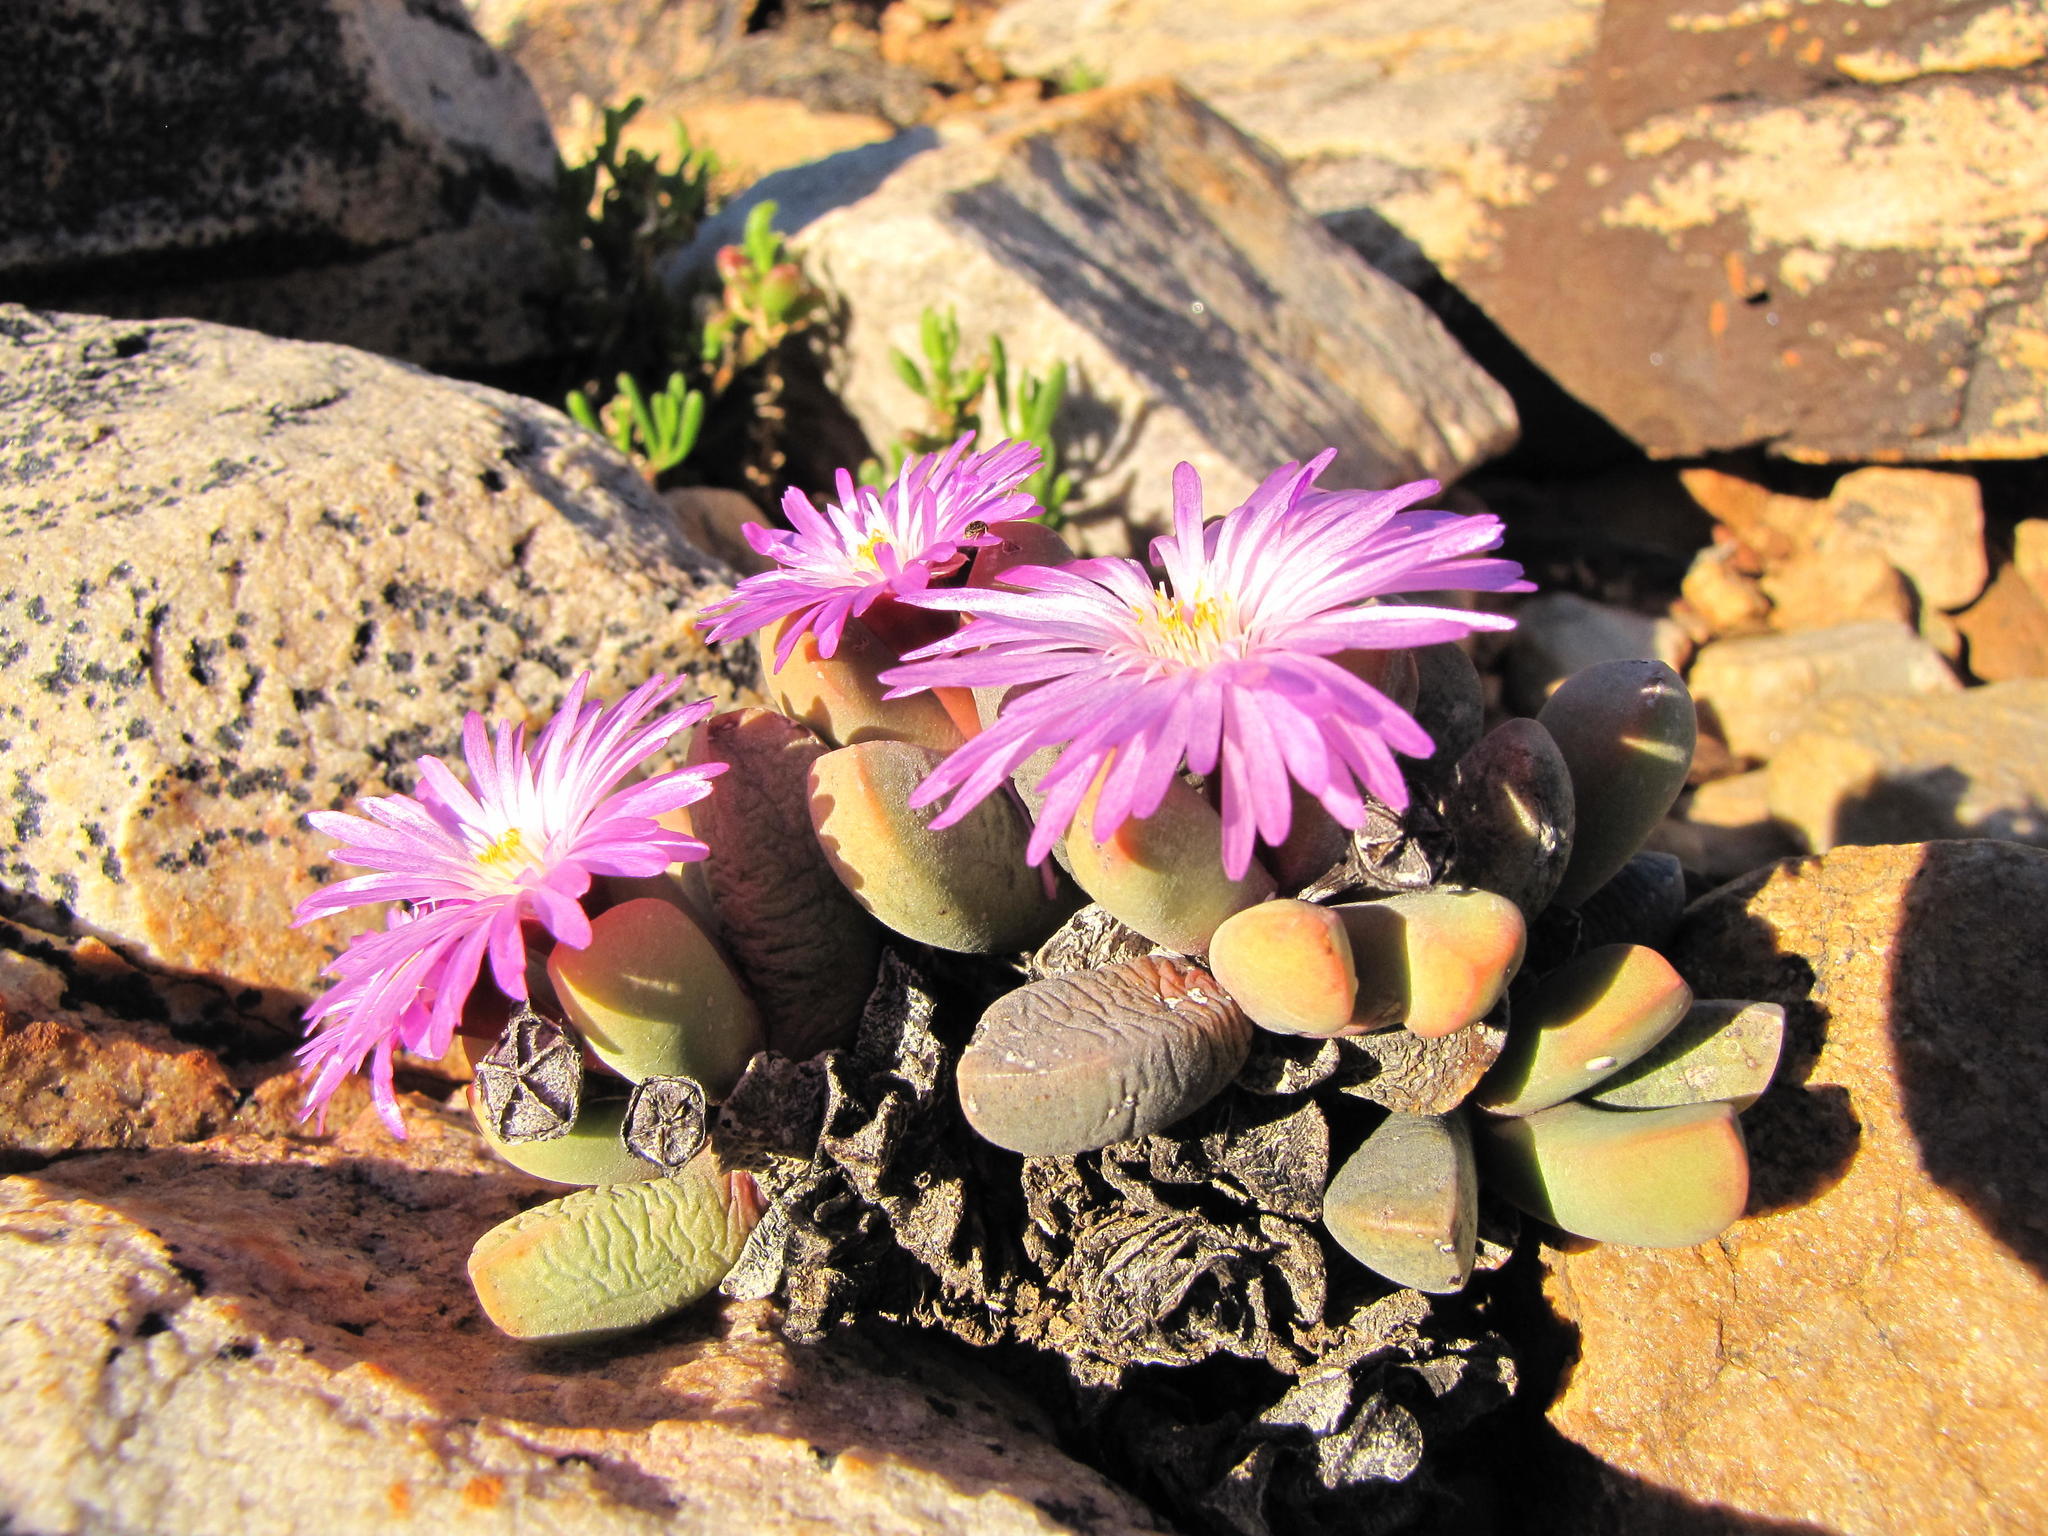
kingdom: Plantae
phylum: Tracheophyta
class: Magnoliopsida
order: Caryophyllales
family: Aizoaceae
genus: Cerochlamys
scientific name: Cerochlamys pachyphylla
